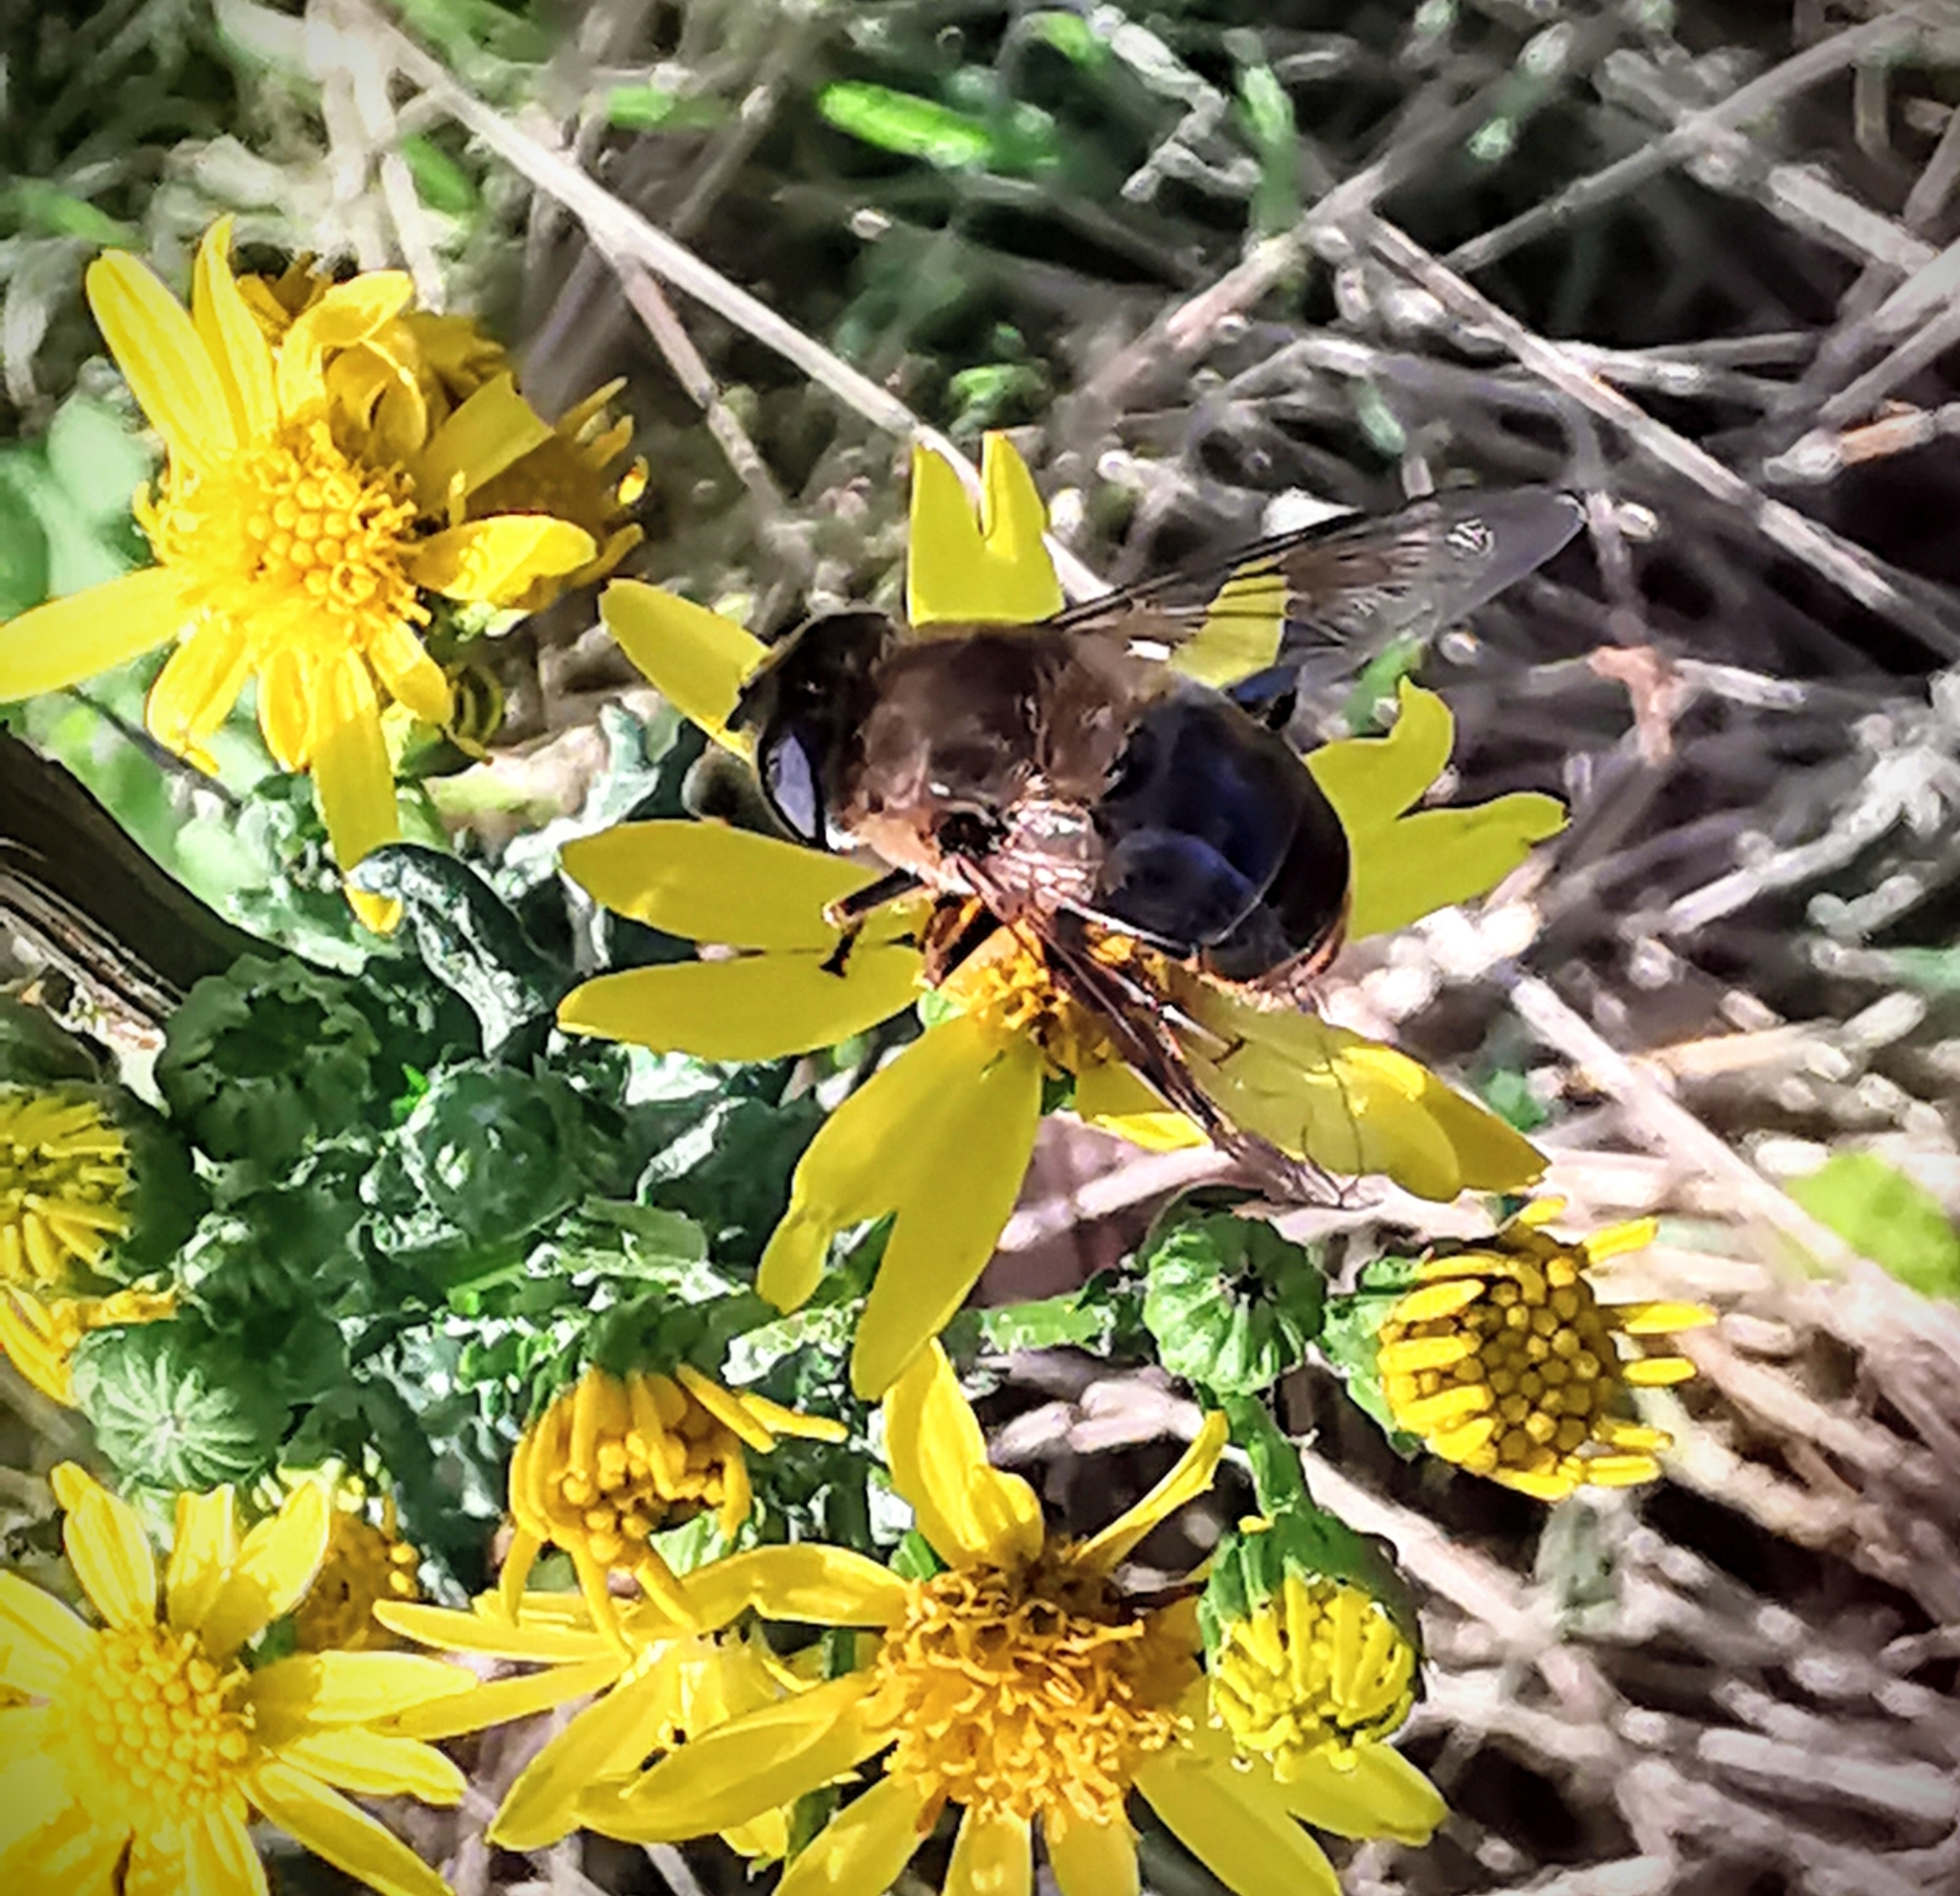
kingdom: Animalia
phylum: Arthropoda
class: Insecta
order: Diptera
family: Syrphidae
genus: Eristalis
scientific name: Eristalis tenax
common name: Drone fly
